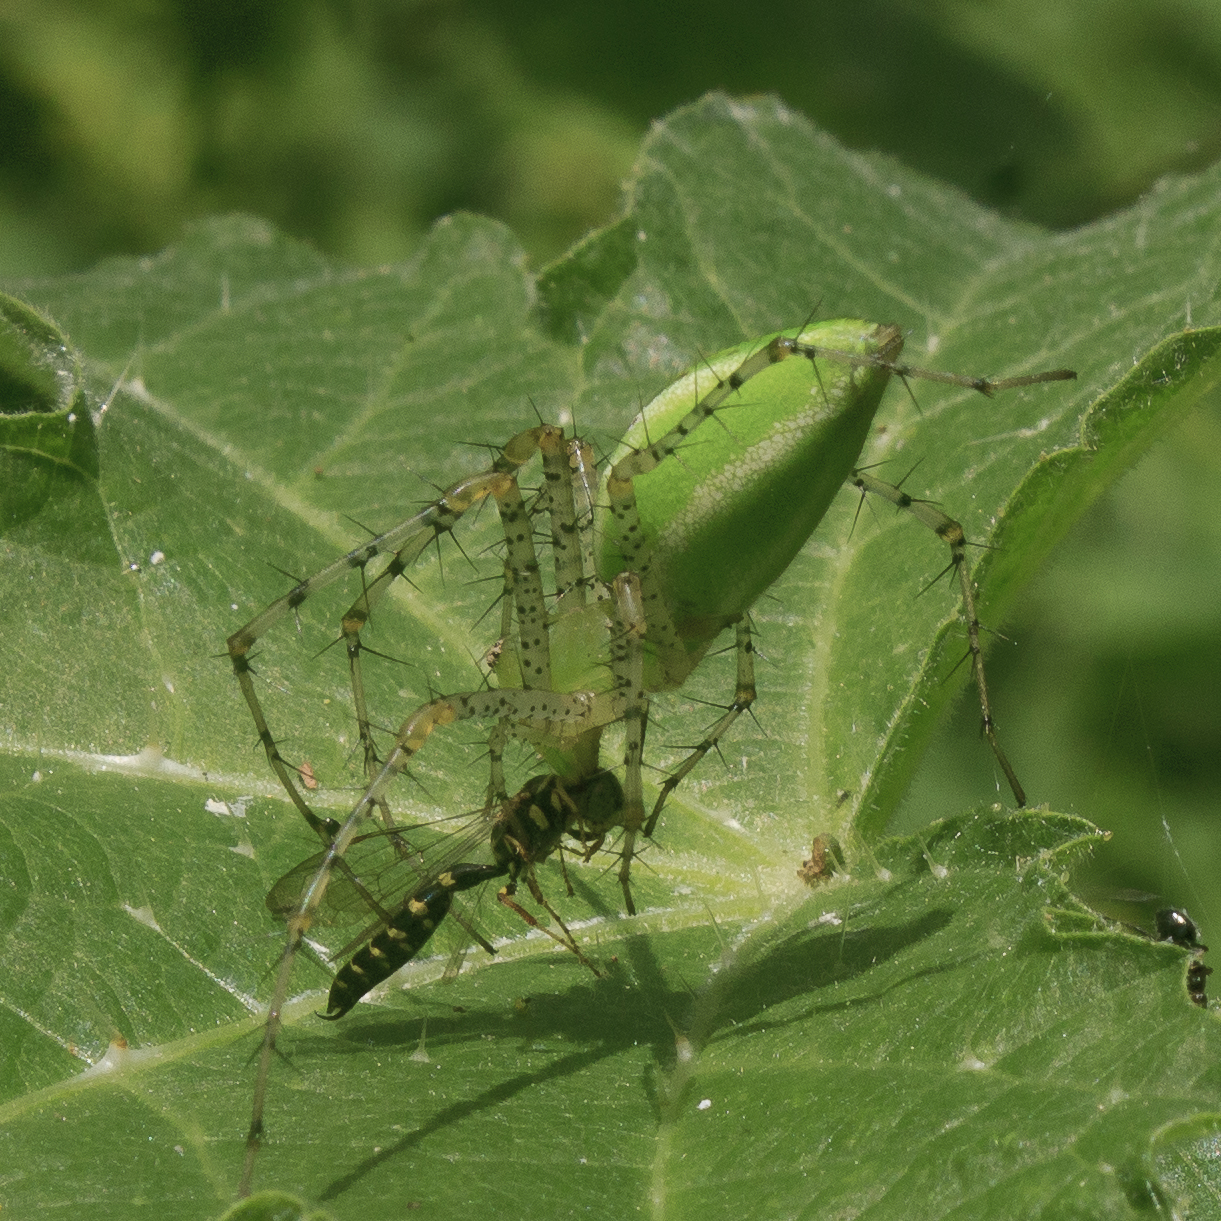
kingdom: Animalia
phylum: Arthropoda
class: Arachnida
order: Araneae
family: Oxyopidae
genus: Peucetia
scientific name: Peucetia viridans
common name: Lynx spiders
